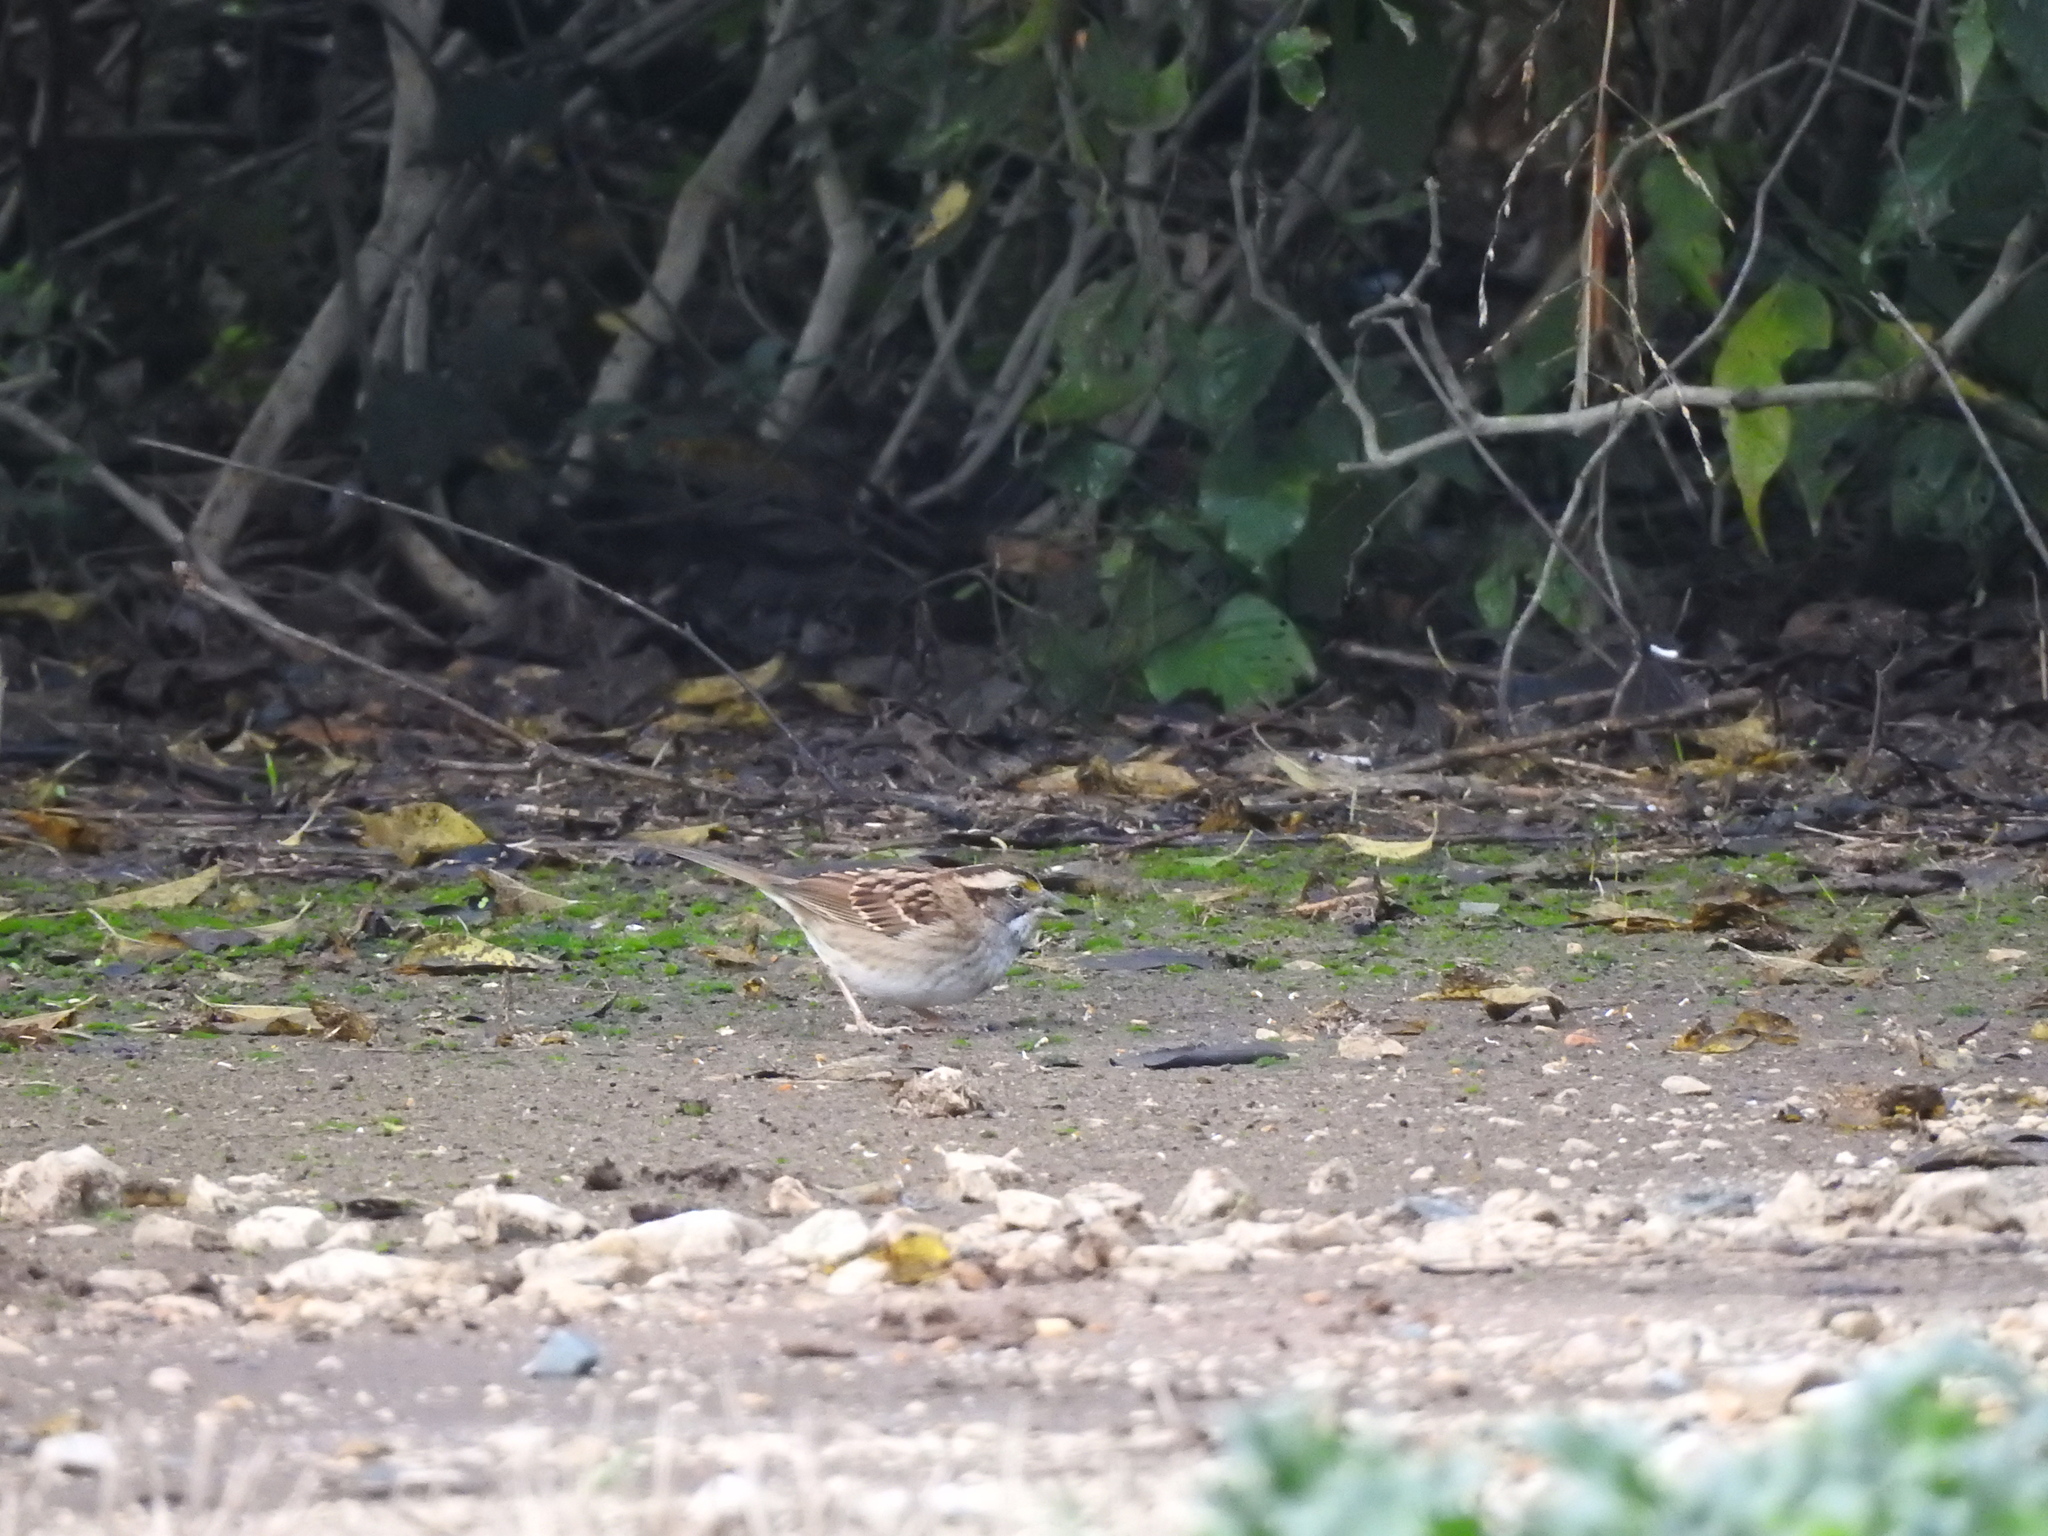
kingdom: Animalia
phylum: Chordata
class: Aves
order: Passeriformes
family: Passerellidae
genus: Zonotrichia
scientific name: Zonotrichia albicollis
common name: White-throated sparrow
